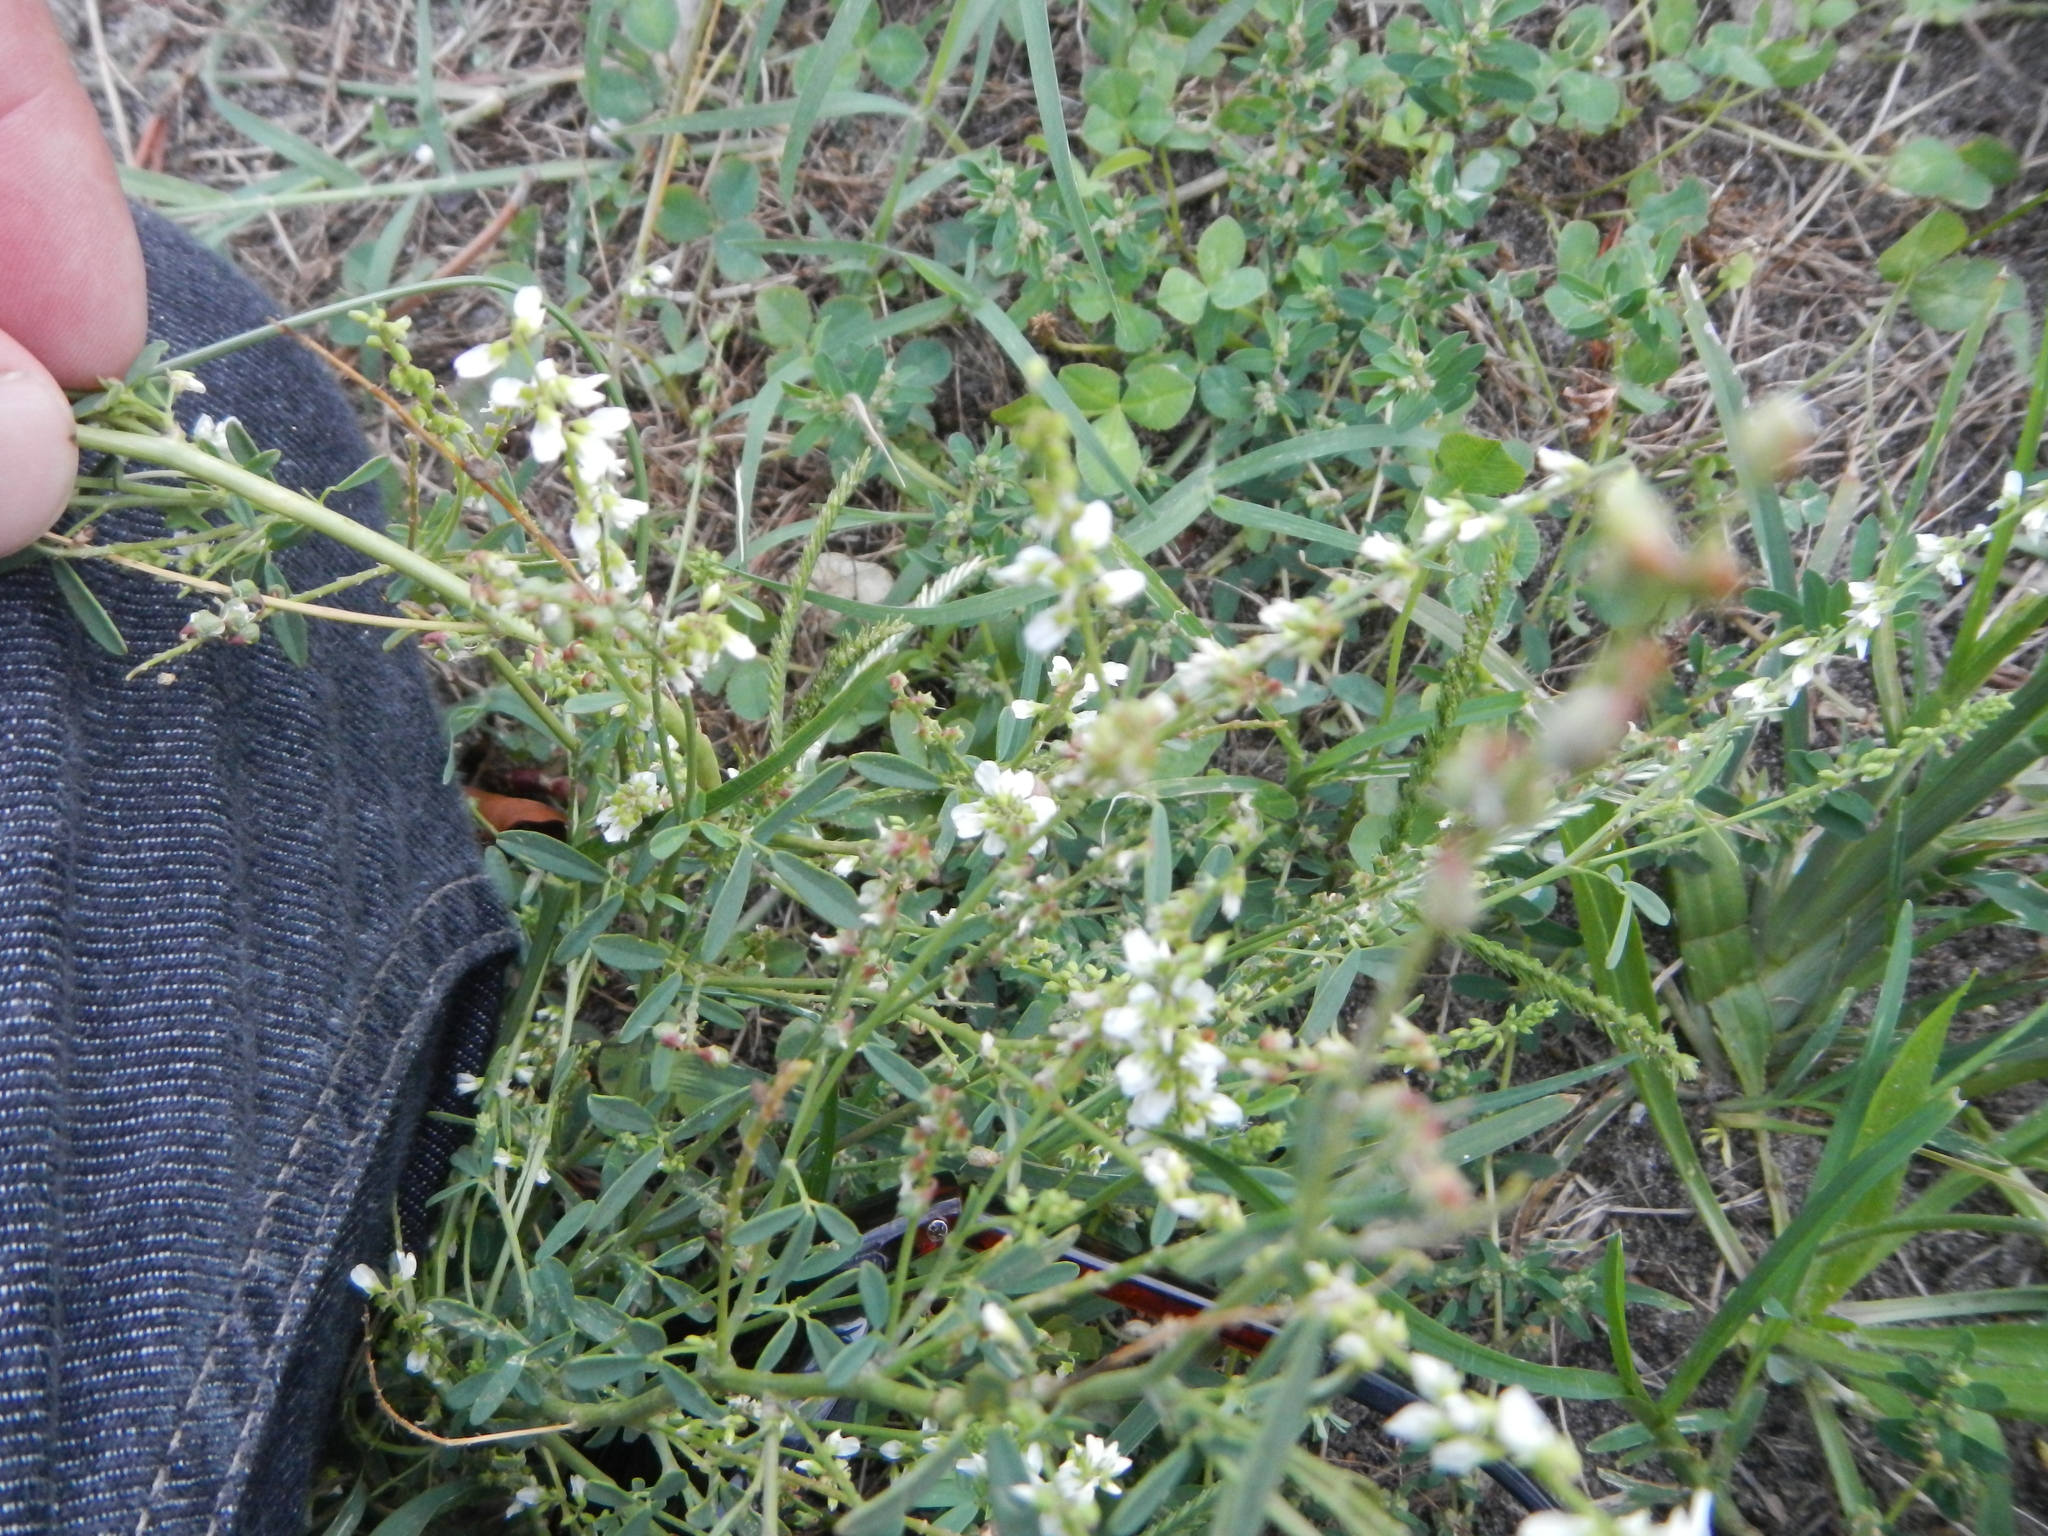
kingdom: Plantae
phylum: Tracheophyta
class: Magnoliopsida
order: Fabales
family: Fabaceae
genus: Melilotus
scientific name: Melilotus albus
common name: White melilot
